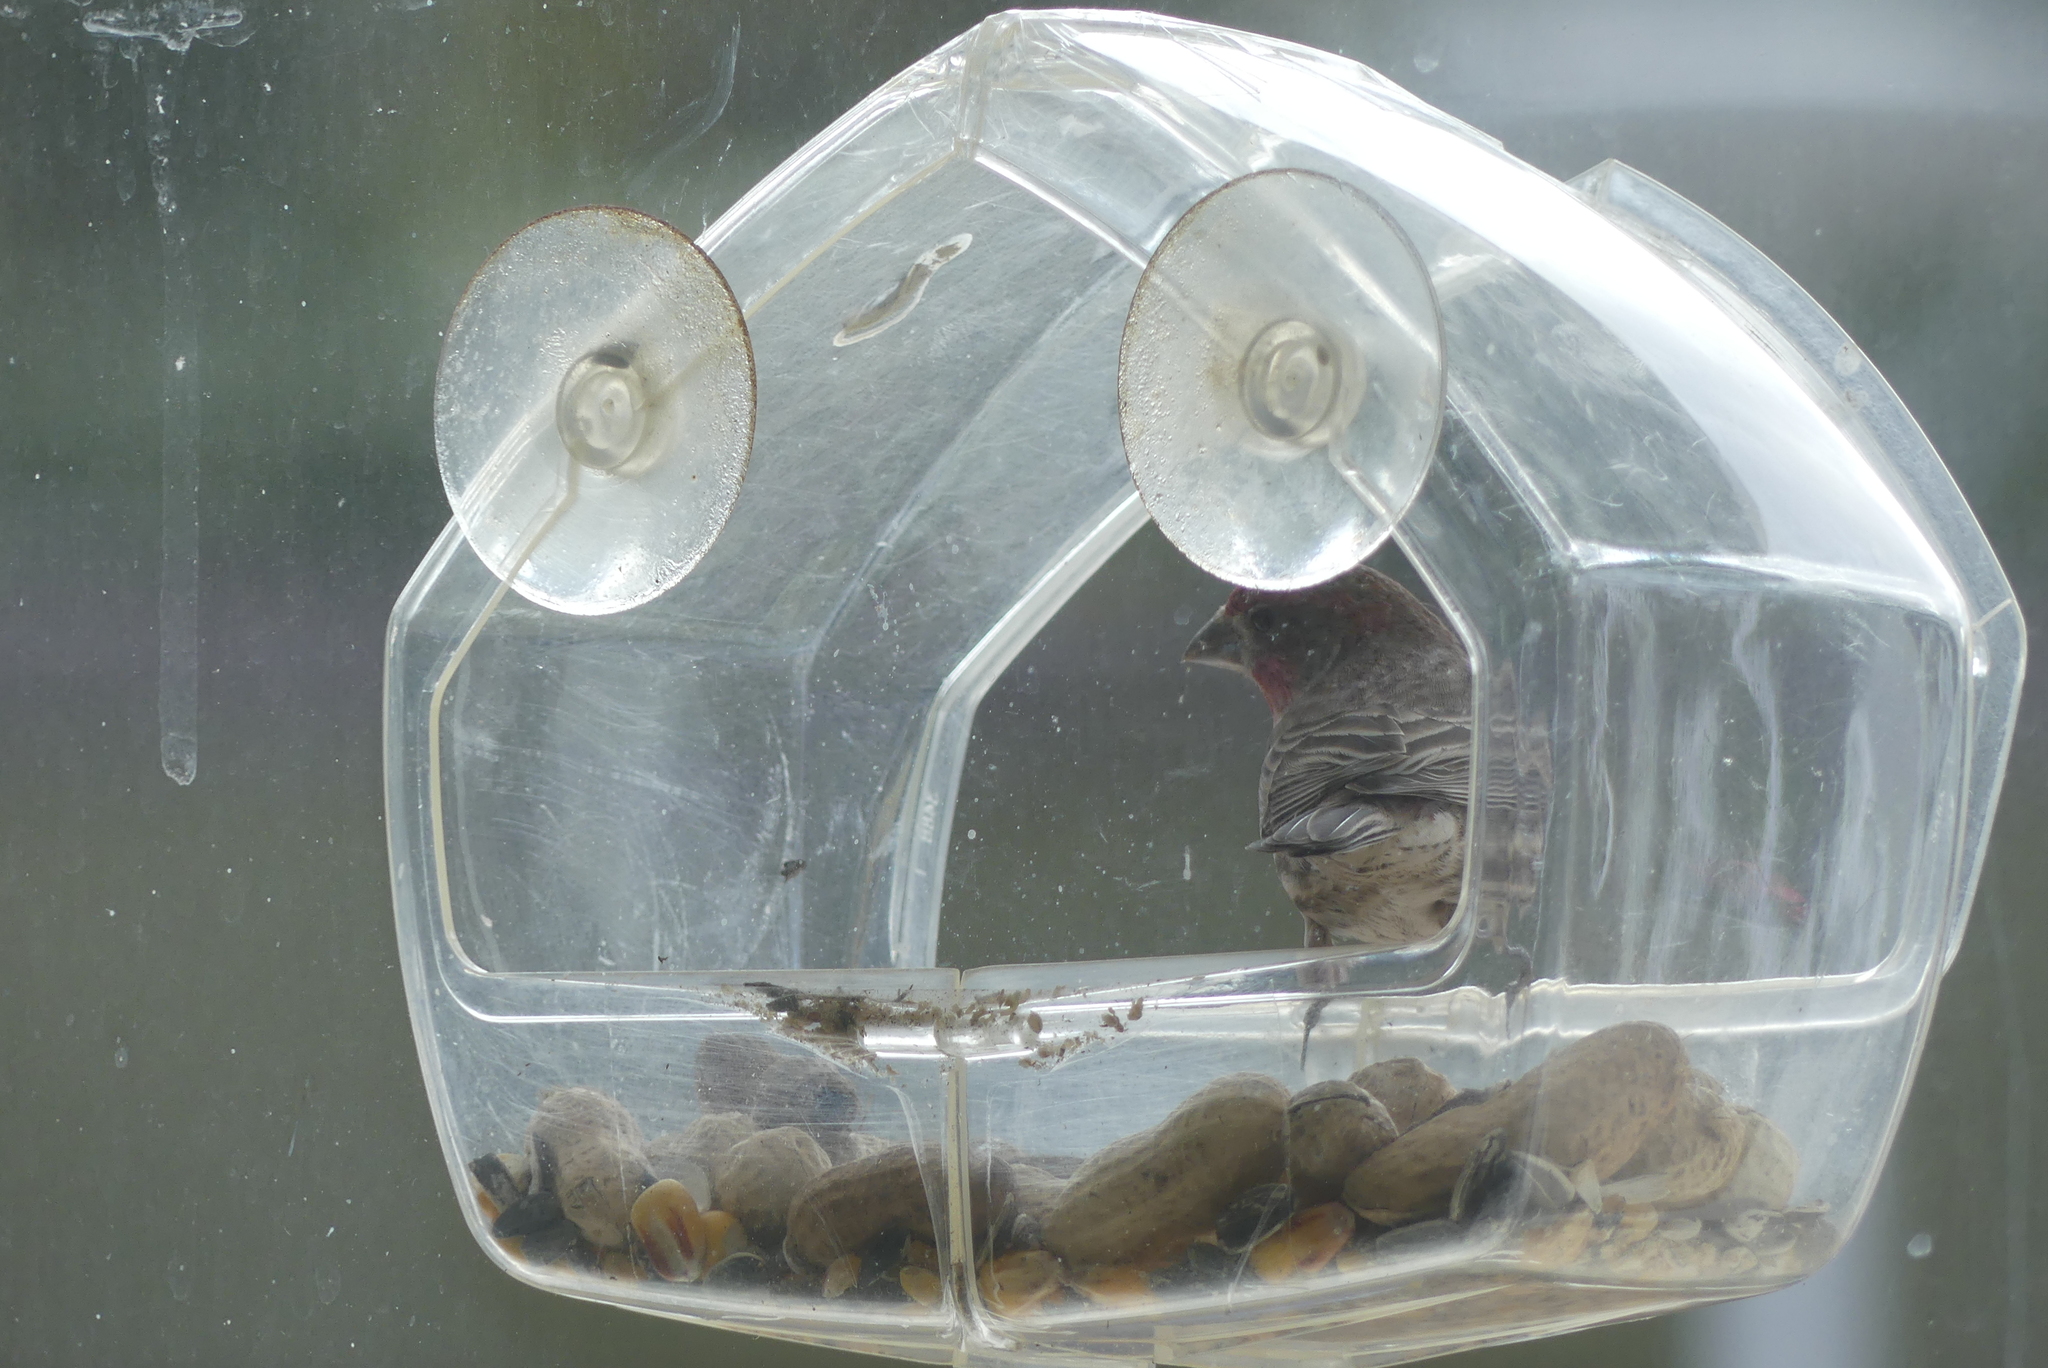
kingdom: Animalia
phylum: Chordata
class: Aves
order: Passeriformes
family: Fringillidae
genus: Haemorhous
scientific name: Haemorhous mexicanus
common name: House finch
